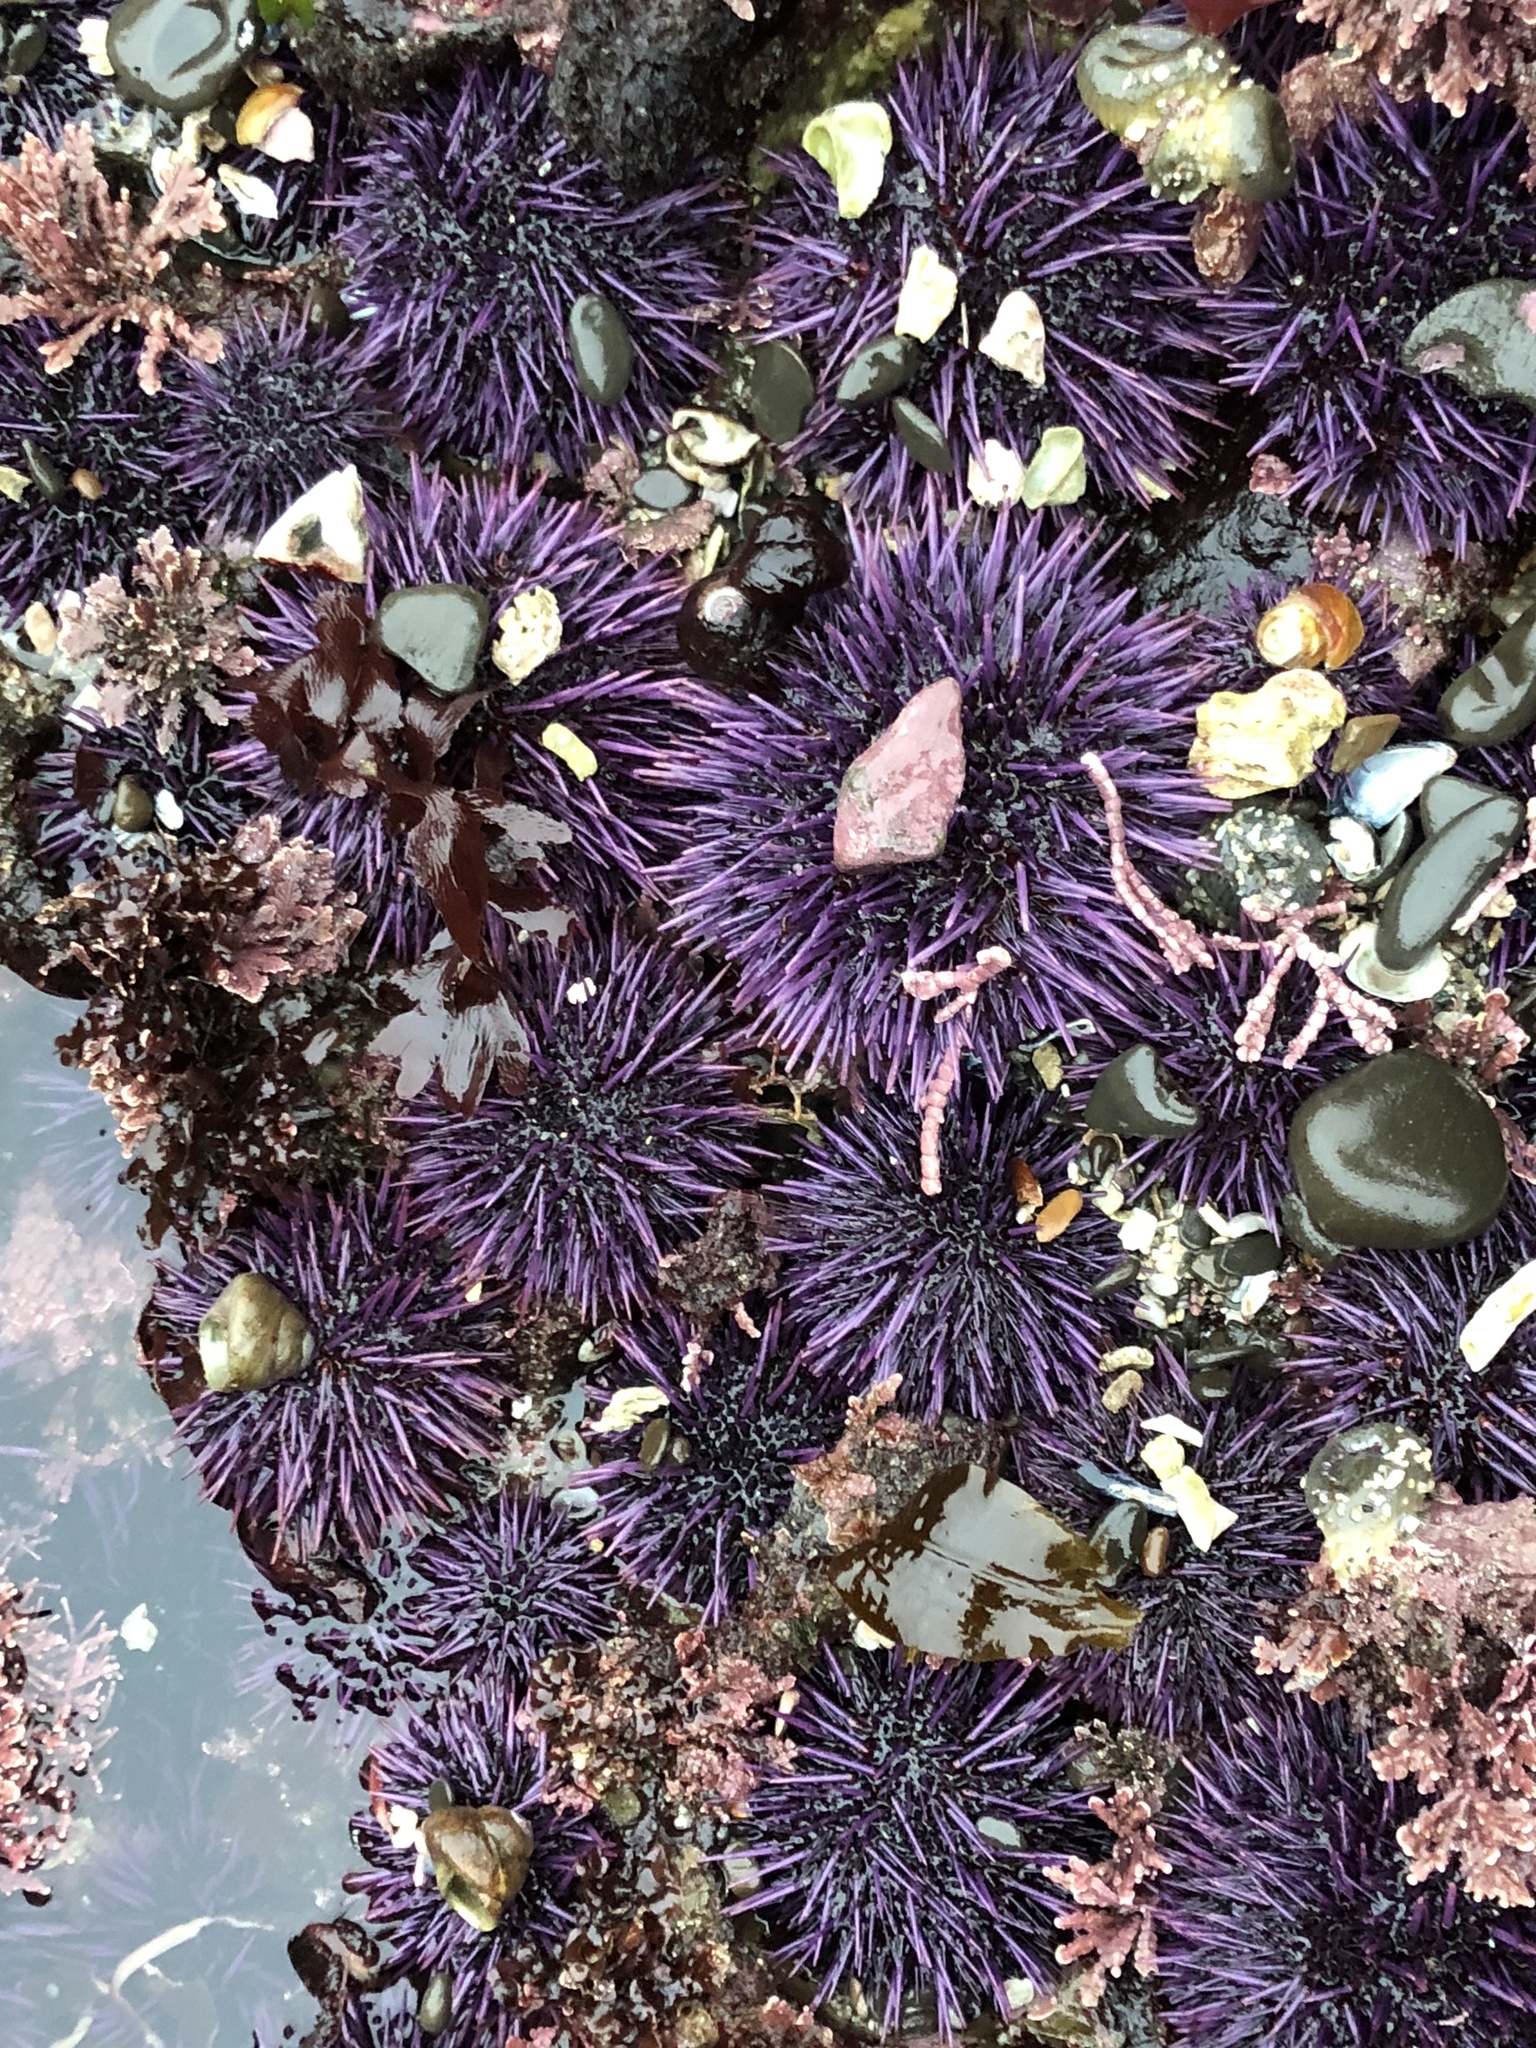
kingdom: Animalia
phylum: Echinodermata
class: Echinoidea
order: Camarodonta
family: Strongylocentrotidae
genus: Strongylocentrotus
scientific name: Strongylocentrotus purpuratus
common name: Purple sea urchin
